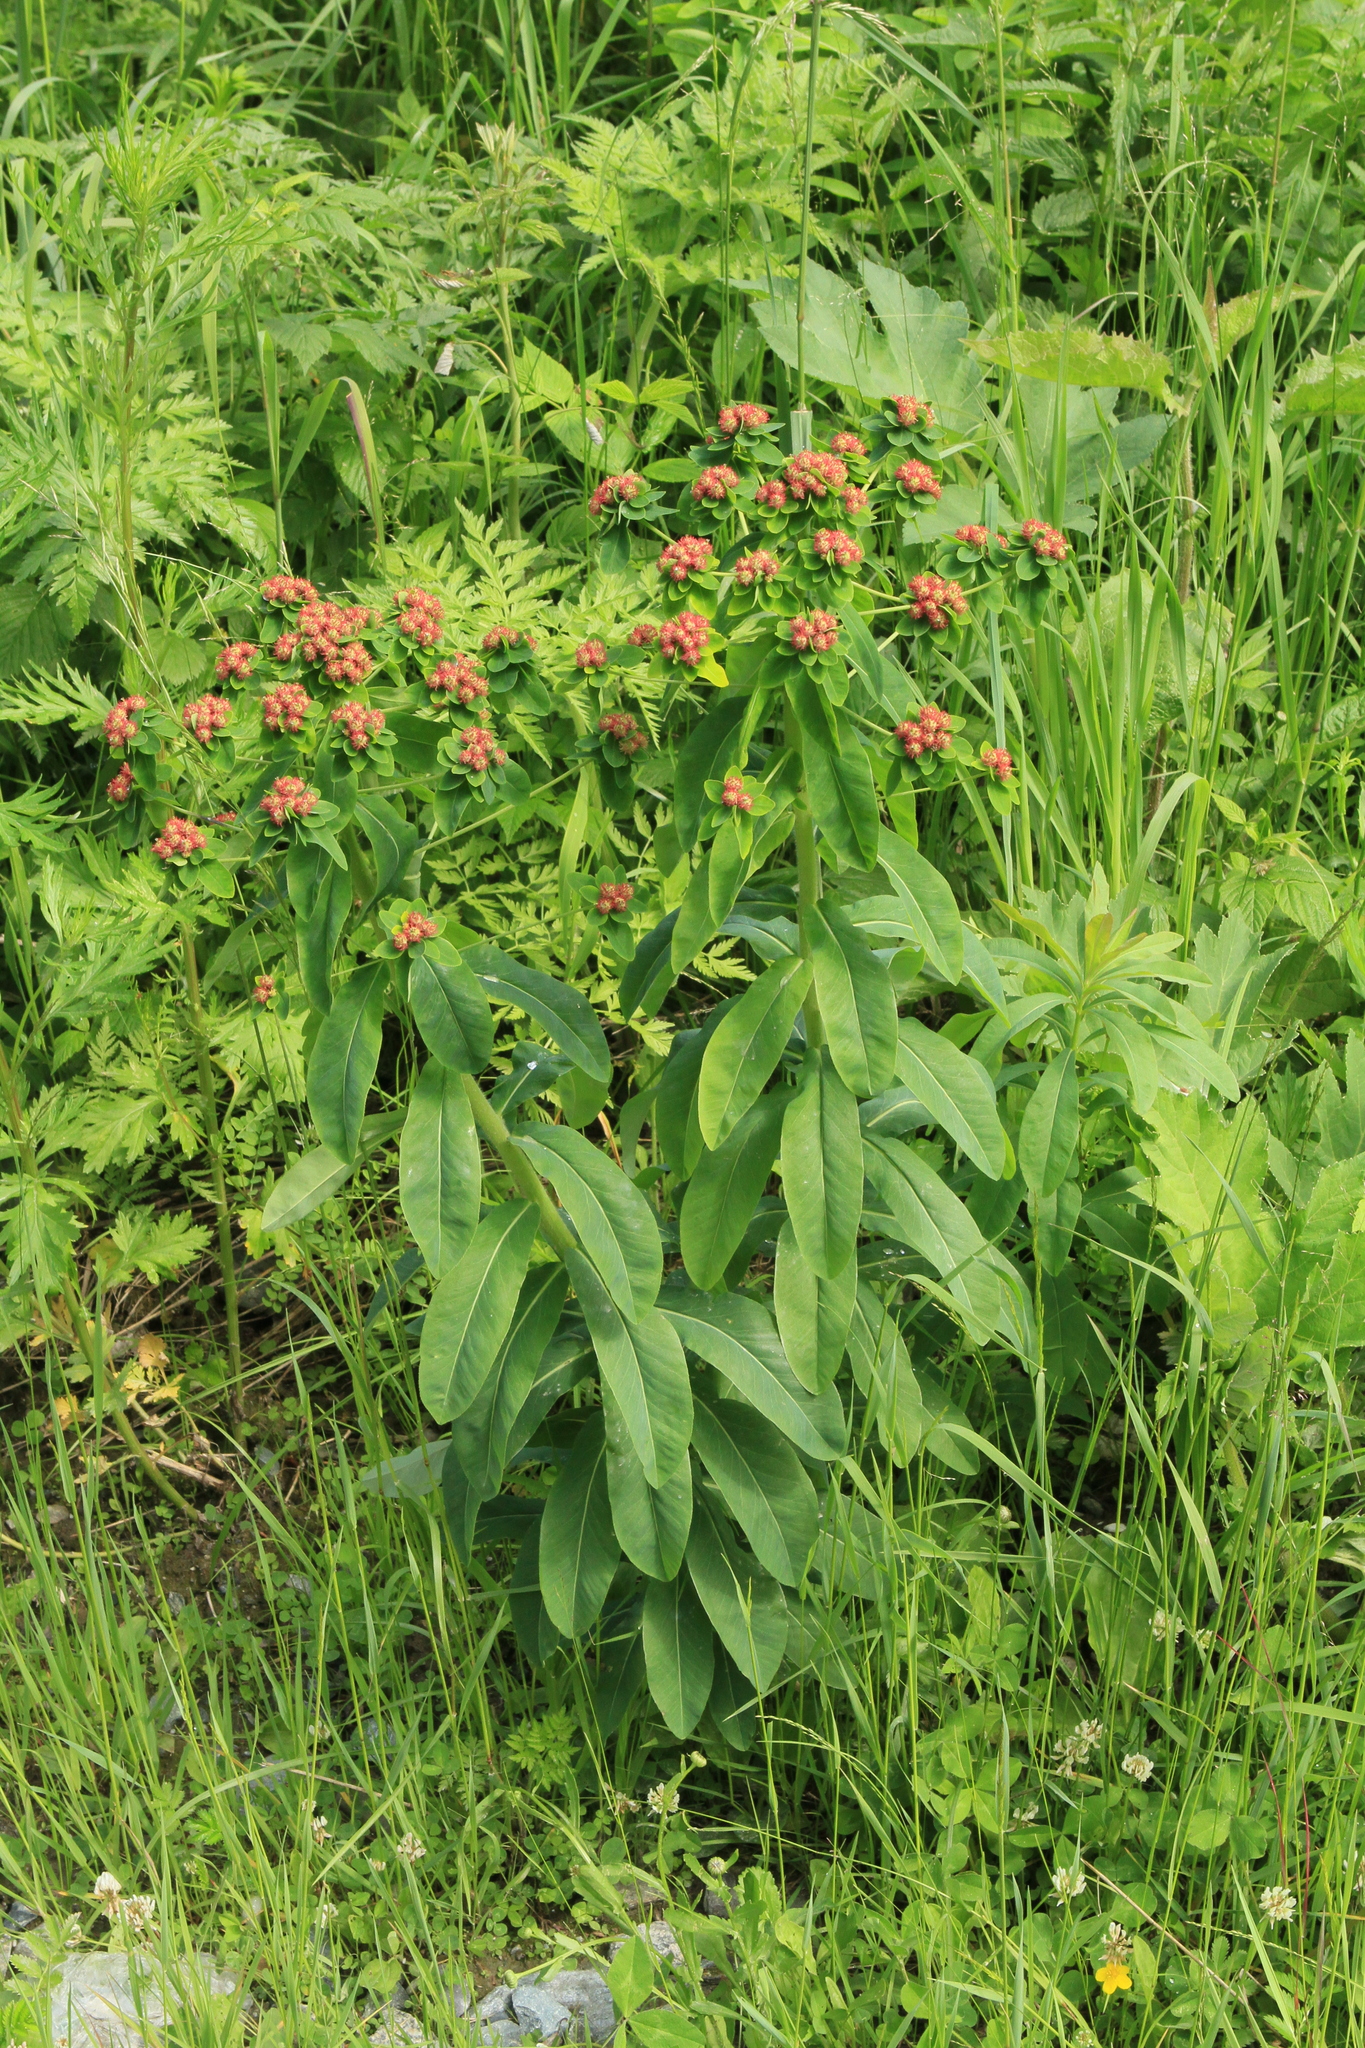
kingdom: Plantae
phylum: Tracheophyta
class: Magnoliopsida
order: Malpighiales
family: Euphorbiaceae
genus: Euphorbia
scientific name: Euphorbia pilosa
